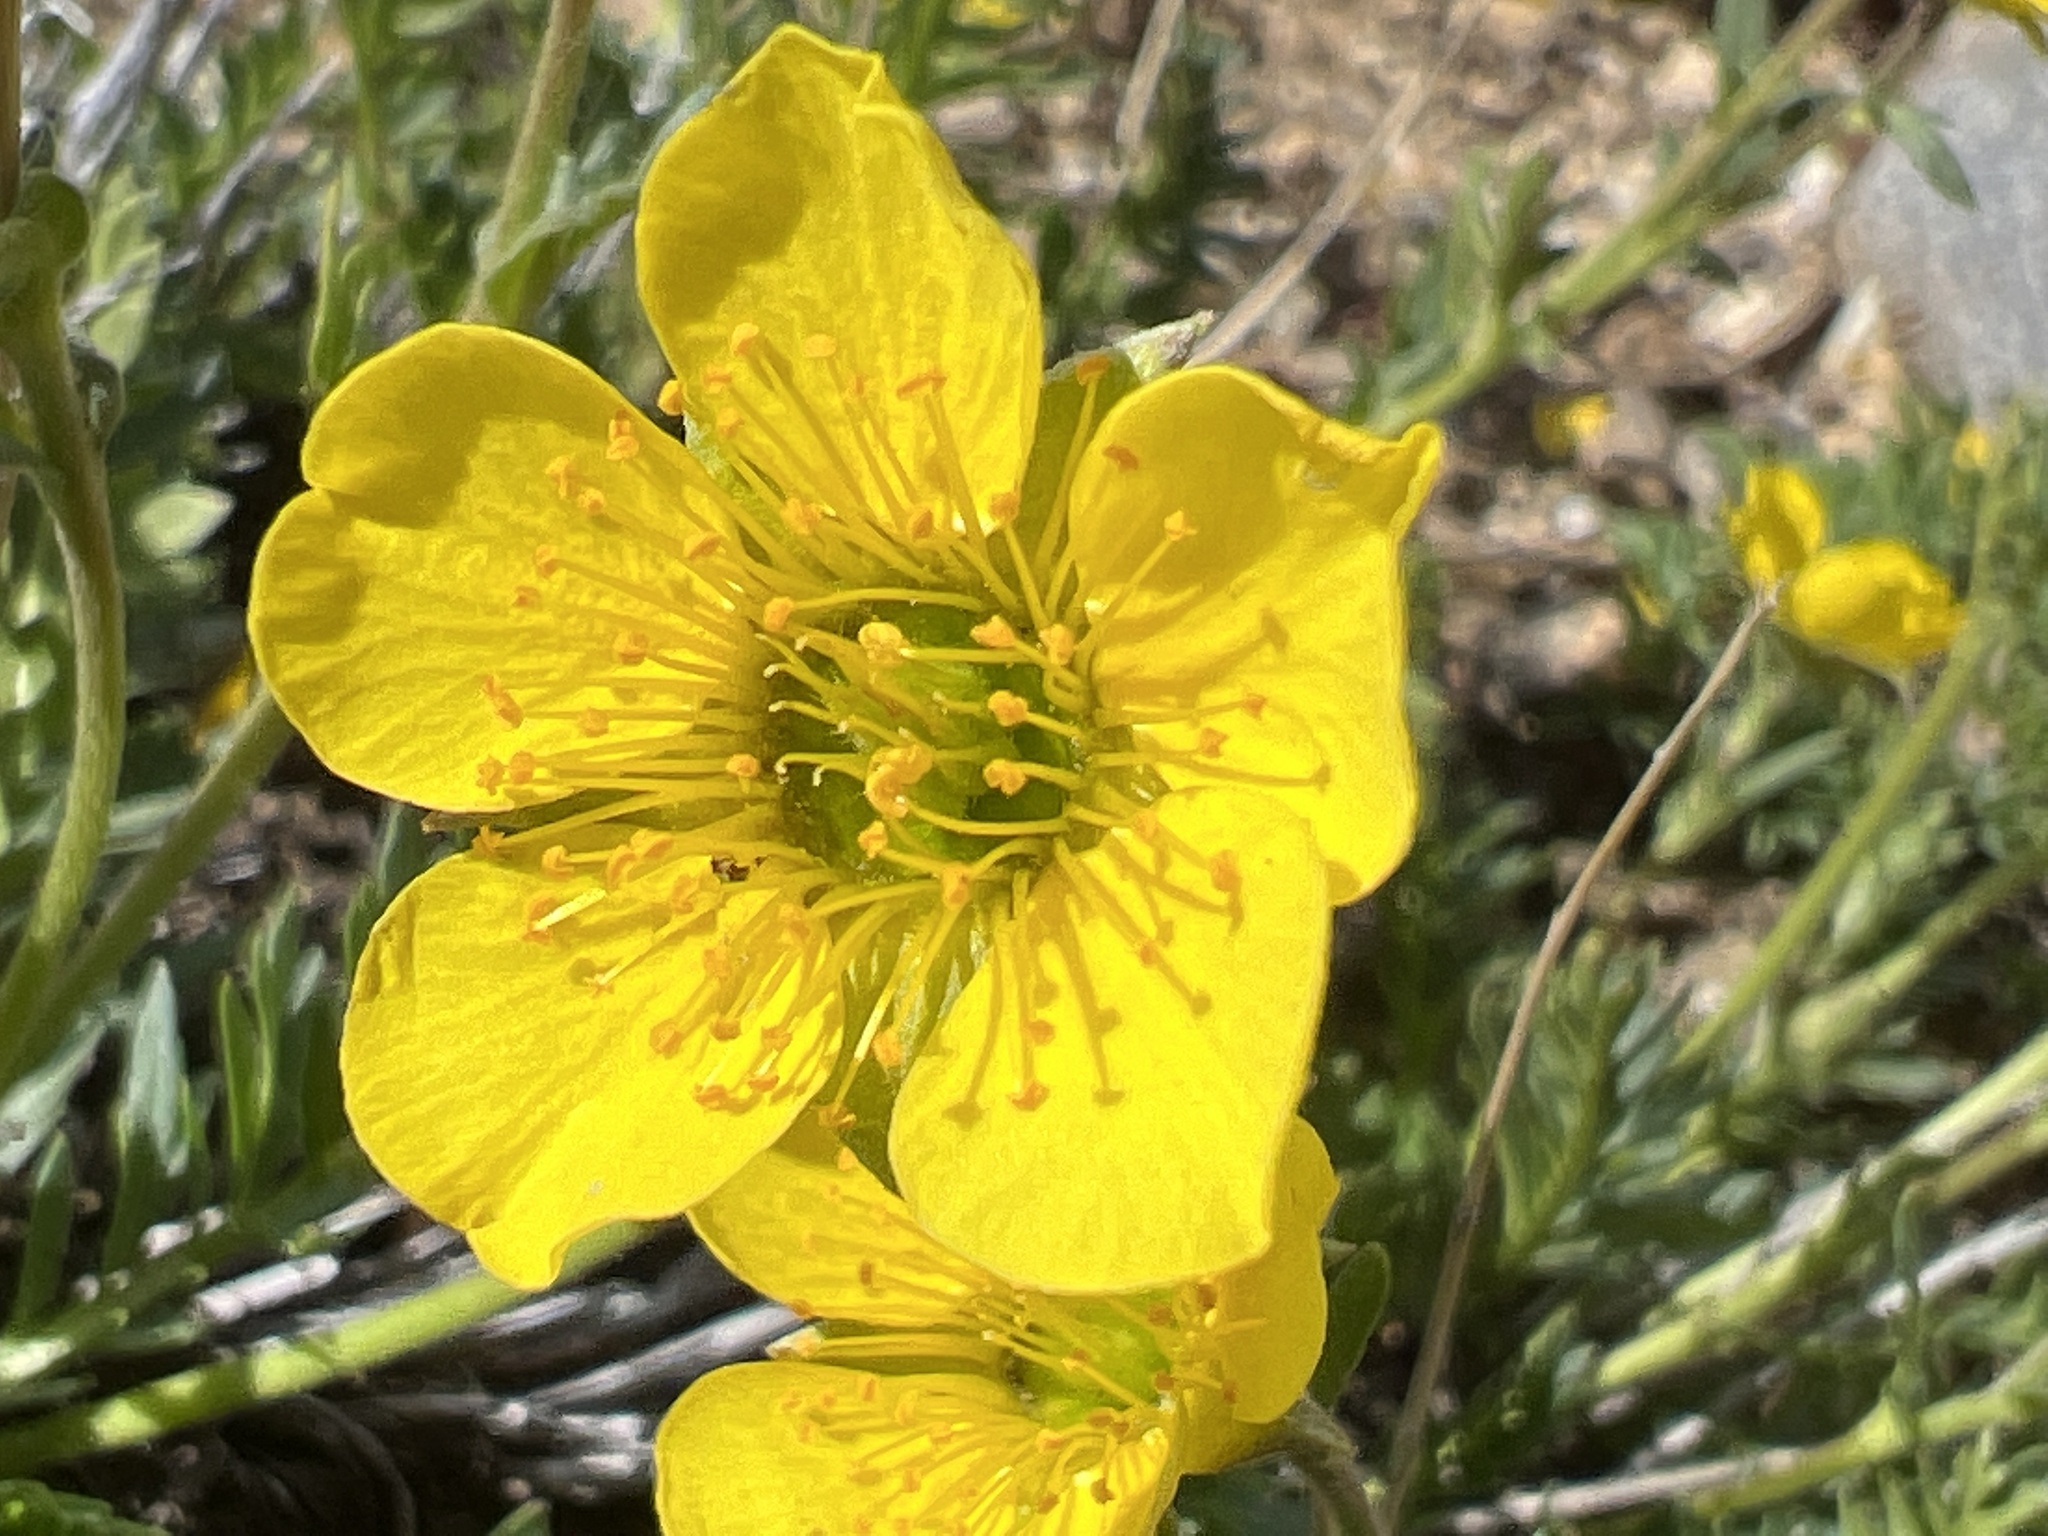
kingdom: Plantae
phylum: Tracheophyta
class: Magnoliopsida
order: Rosales
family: Rosaceae
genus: Geum
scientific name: Geum rossii
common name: Alpine avens
